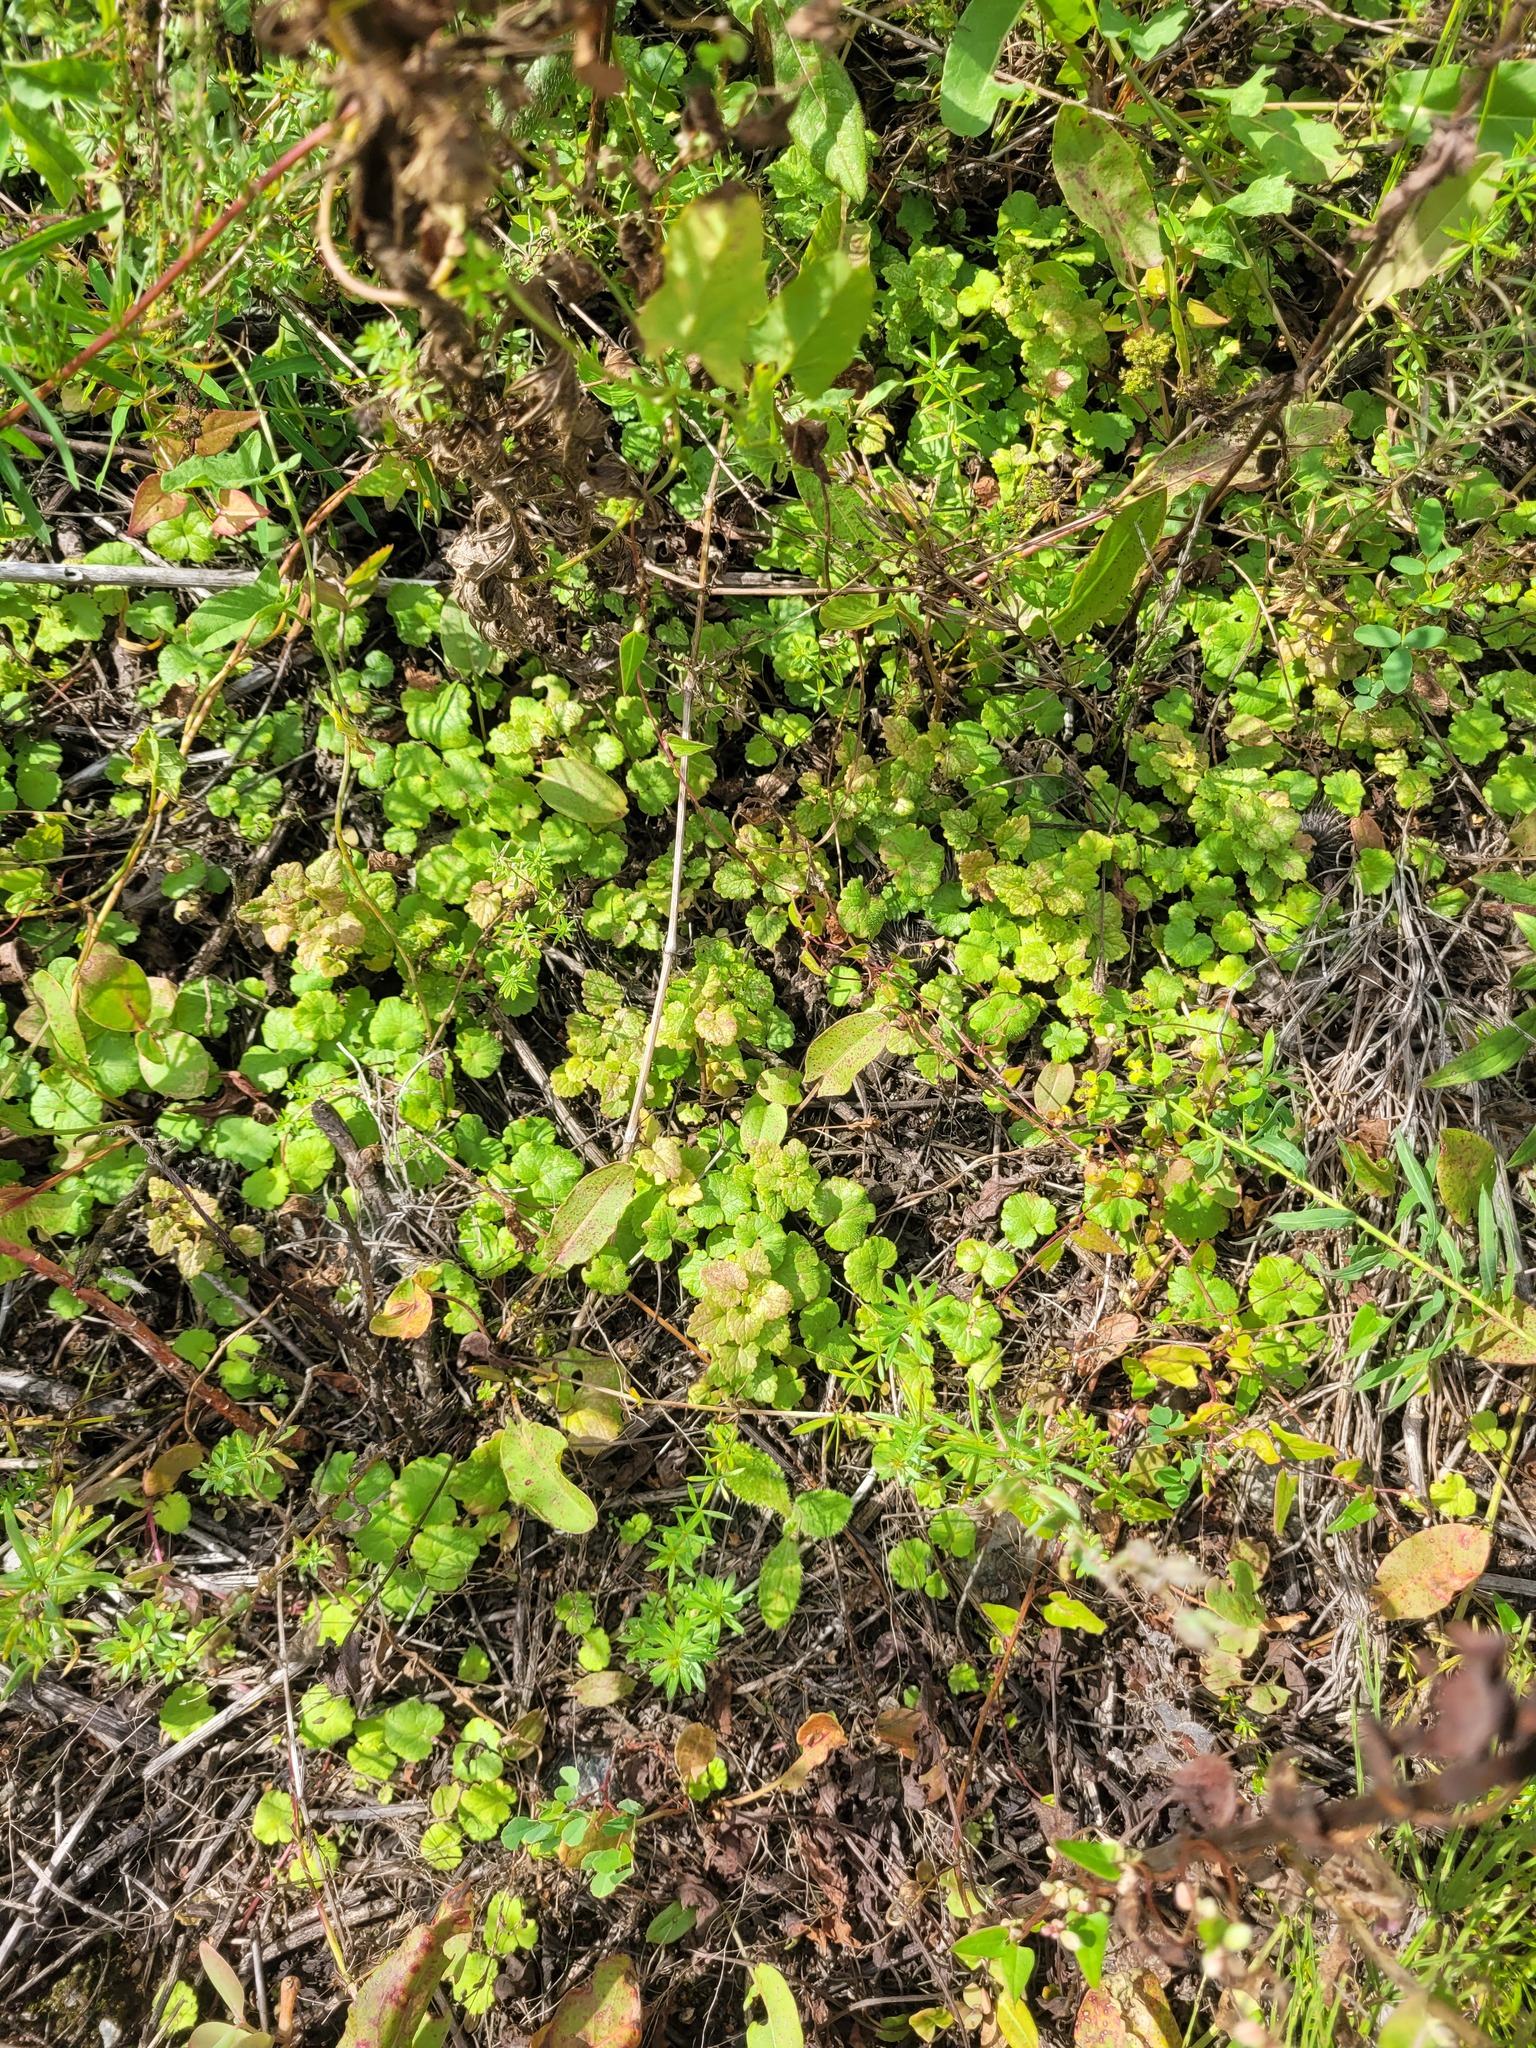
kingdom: Plantae
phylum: Tracheophyta
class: Magnoliopsida
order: Lamiales
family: Lamiaceae
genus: Glechoma
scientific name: Glechoma hederacea
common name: Ground ivy
